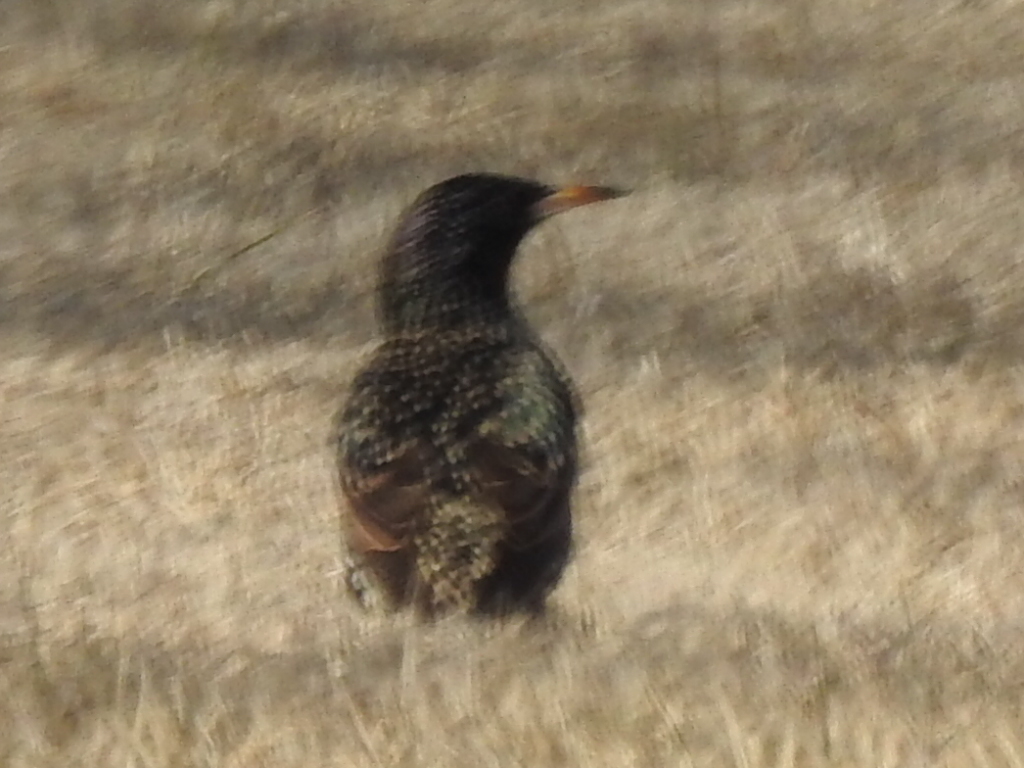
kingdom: Animalia
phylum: Chordata
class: Aves
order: Passeriformes
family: Sturnidae
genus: Sturnus
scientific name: Sturnus vulgaris
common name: Common starling
